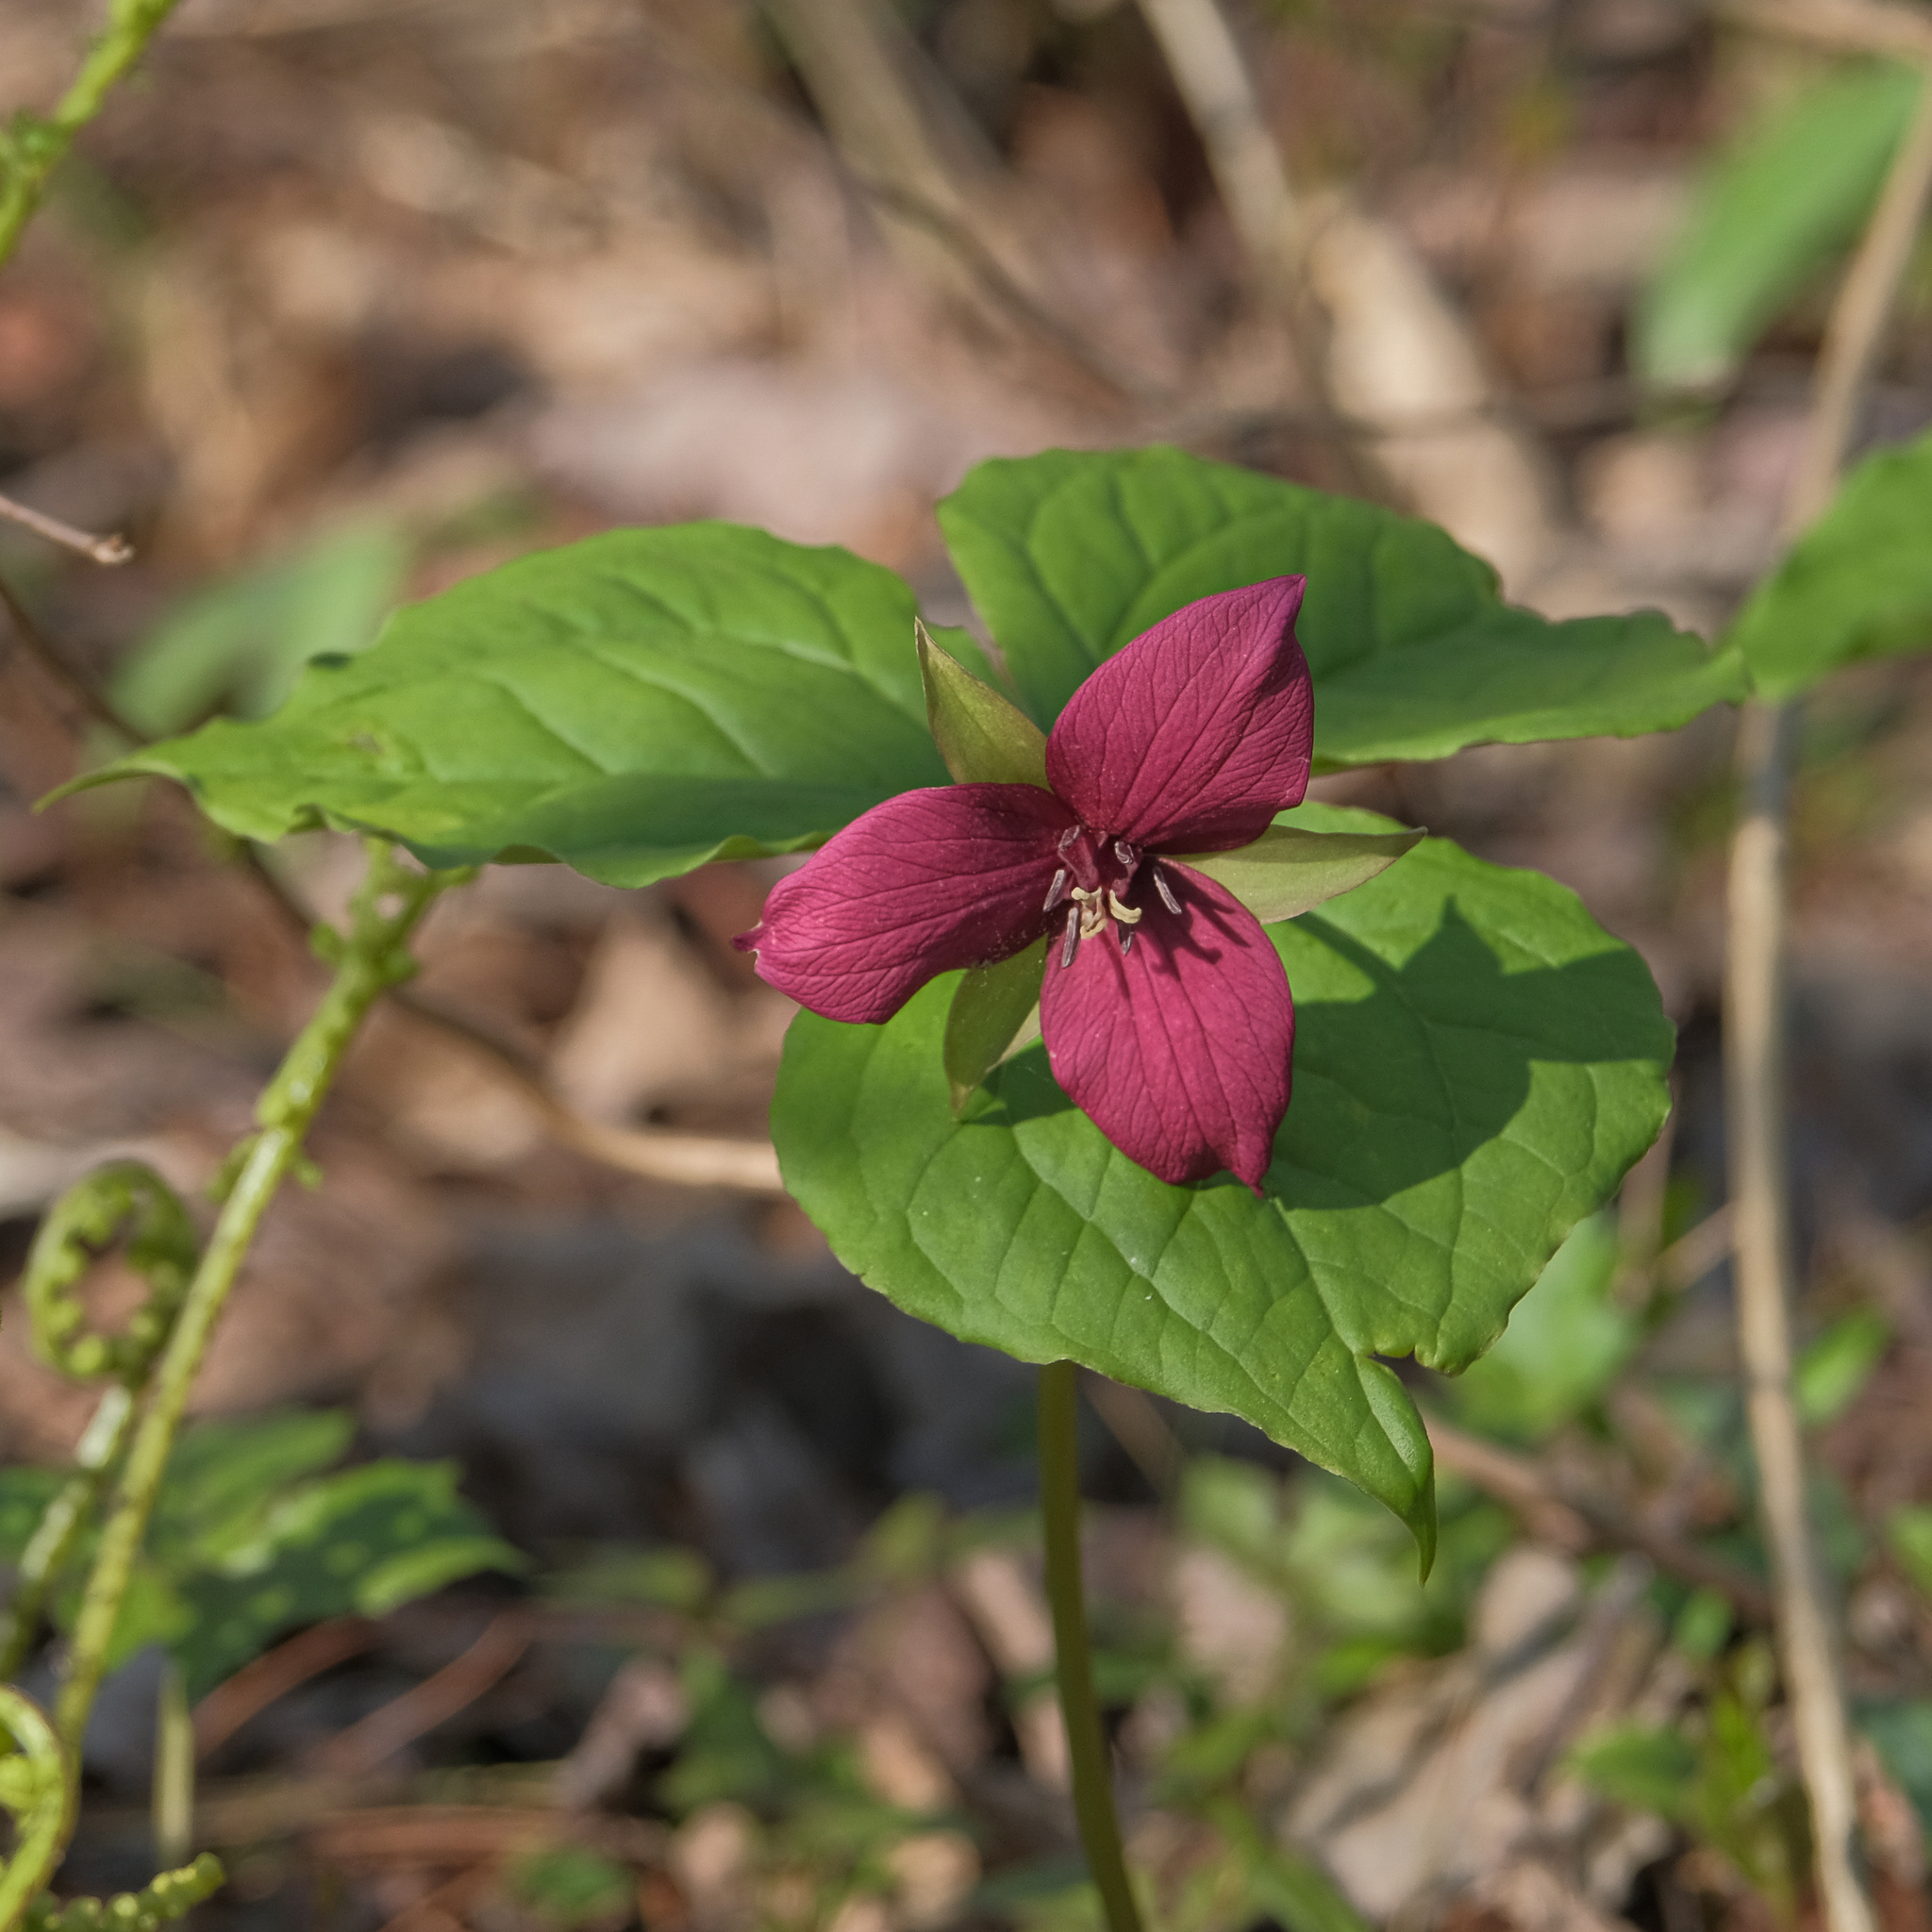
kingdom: Plantae
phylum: Tracheophyta
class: Liliopsida
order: Liliales
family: Melanthiaceae
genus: Trillium
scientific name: Trillium erectum
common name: Purple trillium
